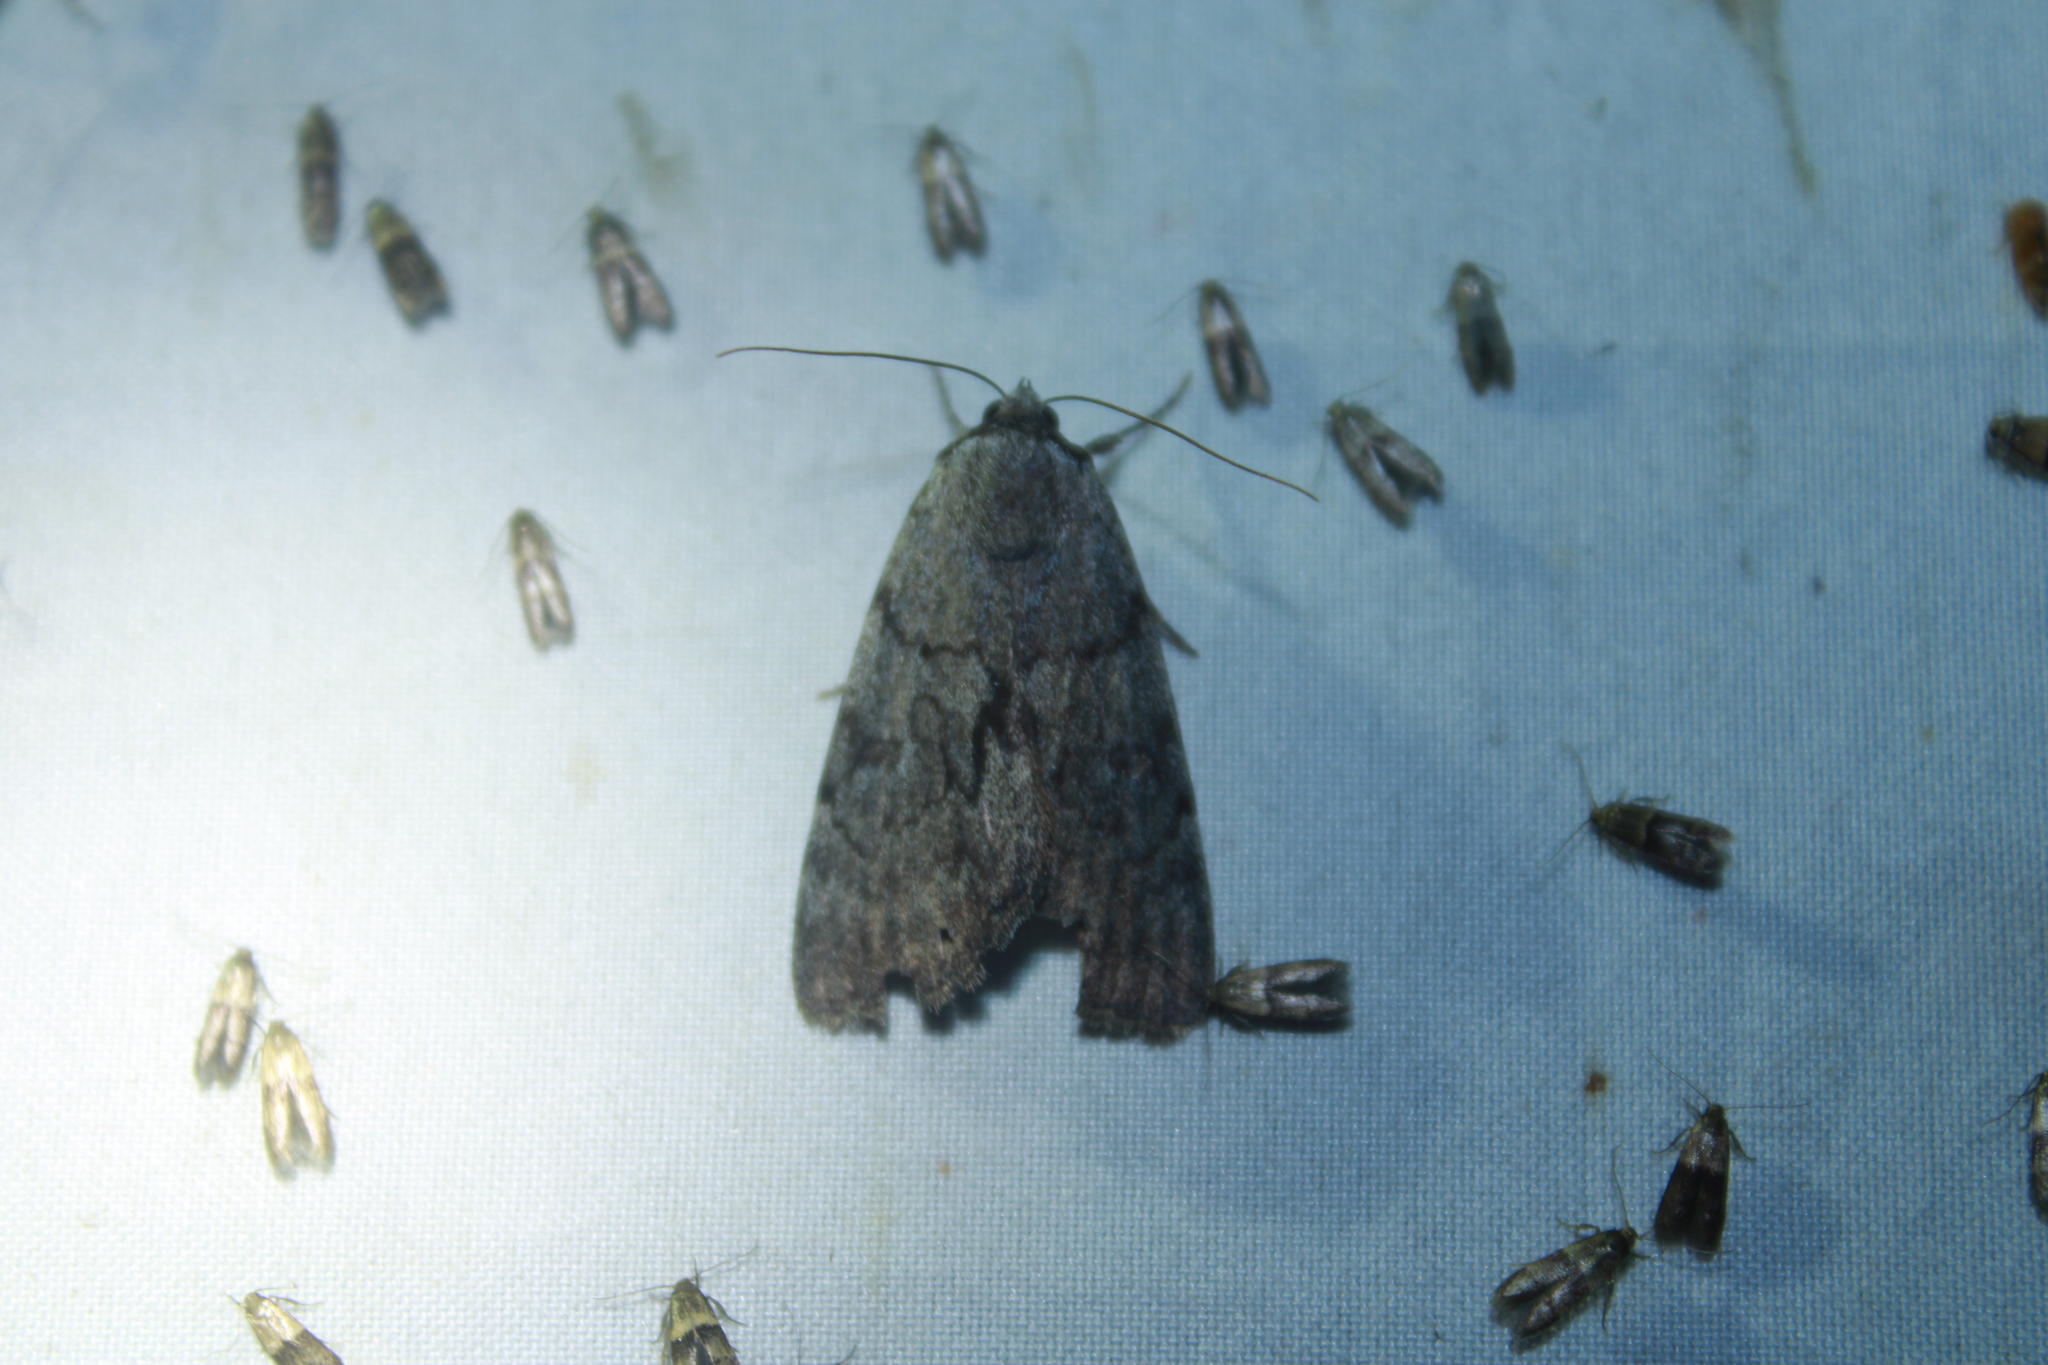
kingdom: Animalia
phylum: Arthropoda
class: Insecta
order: Lepidoptera
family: Erebidae
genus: Catocala
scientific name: Catocala sordida
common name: Sordid underwing
